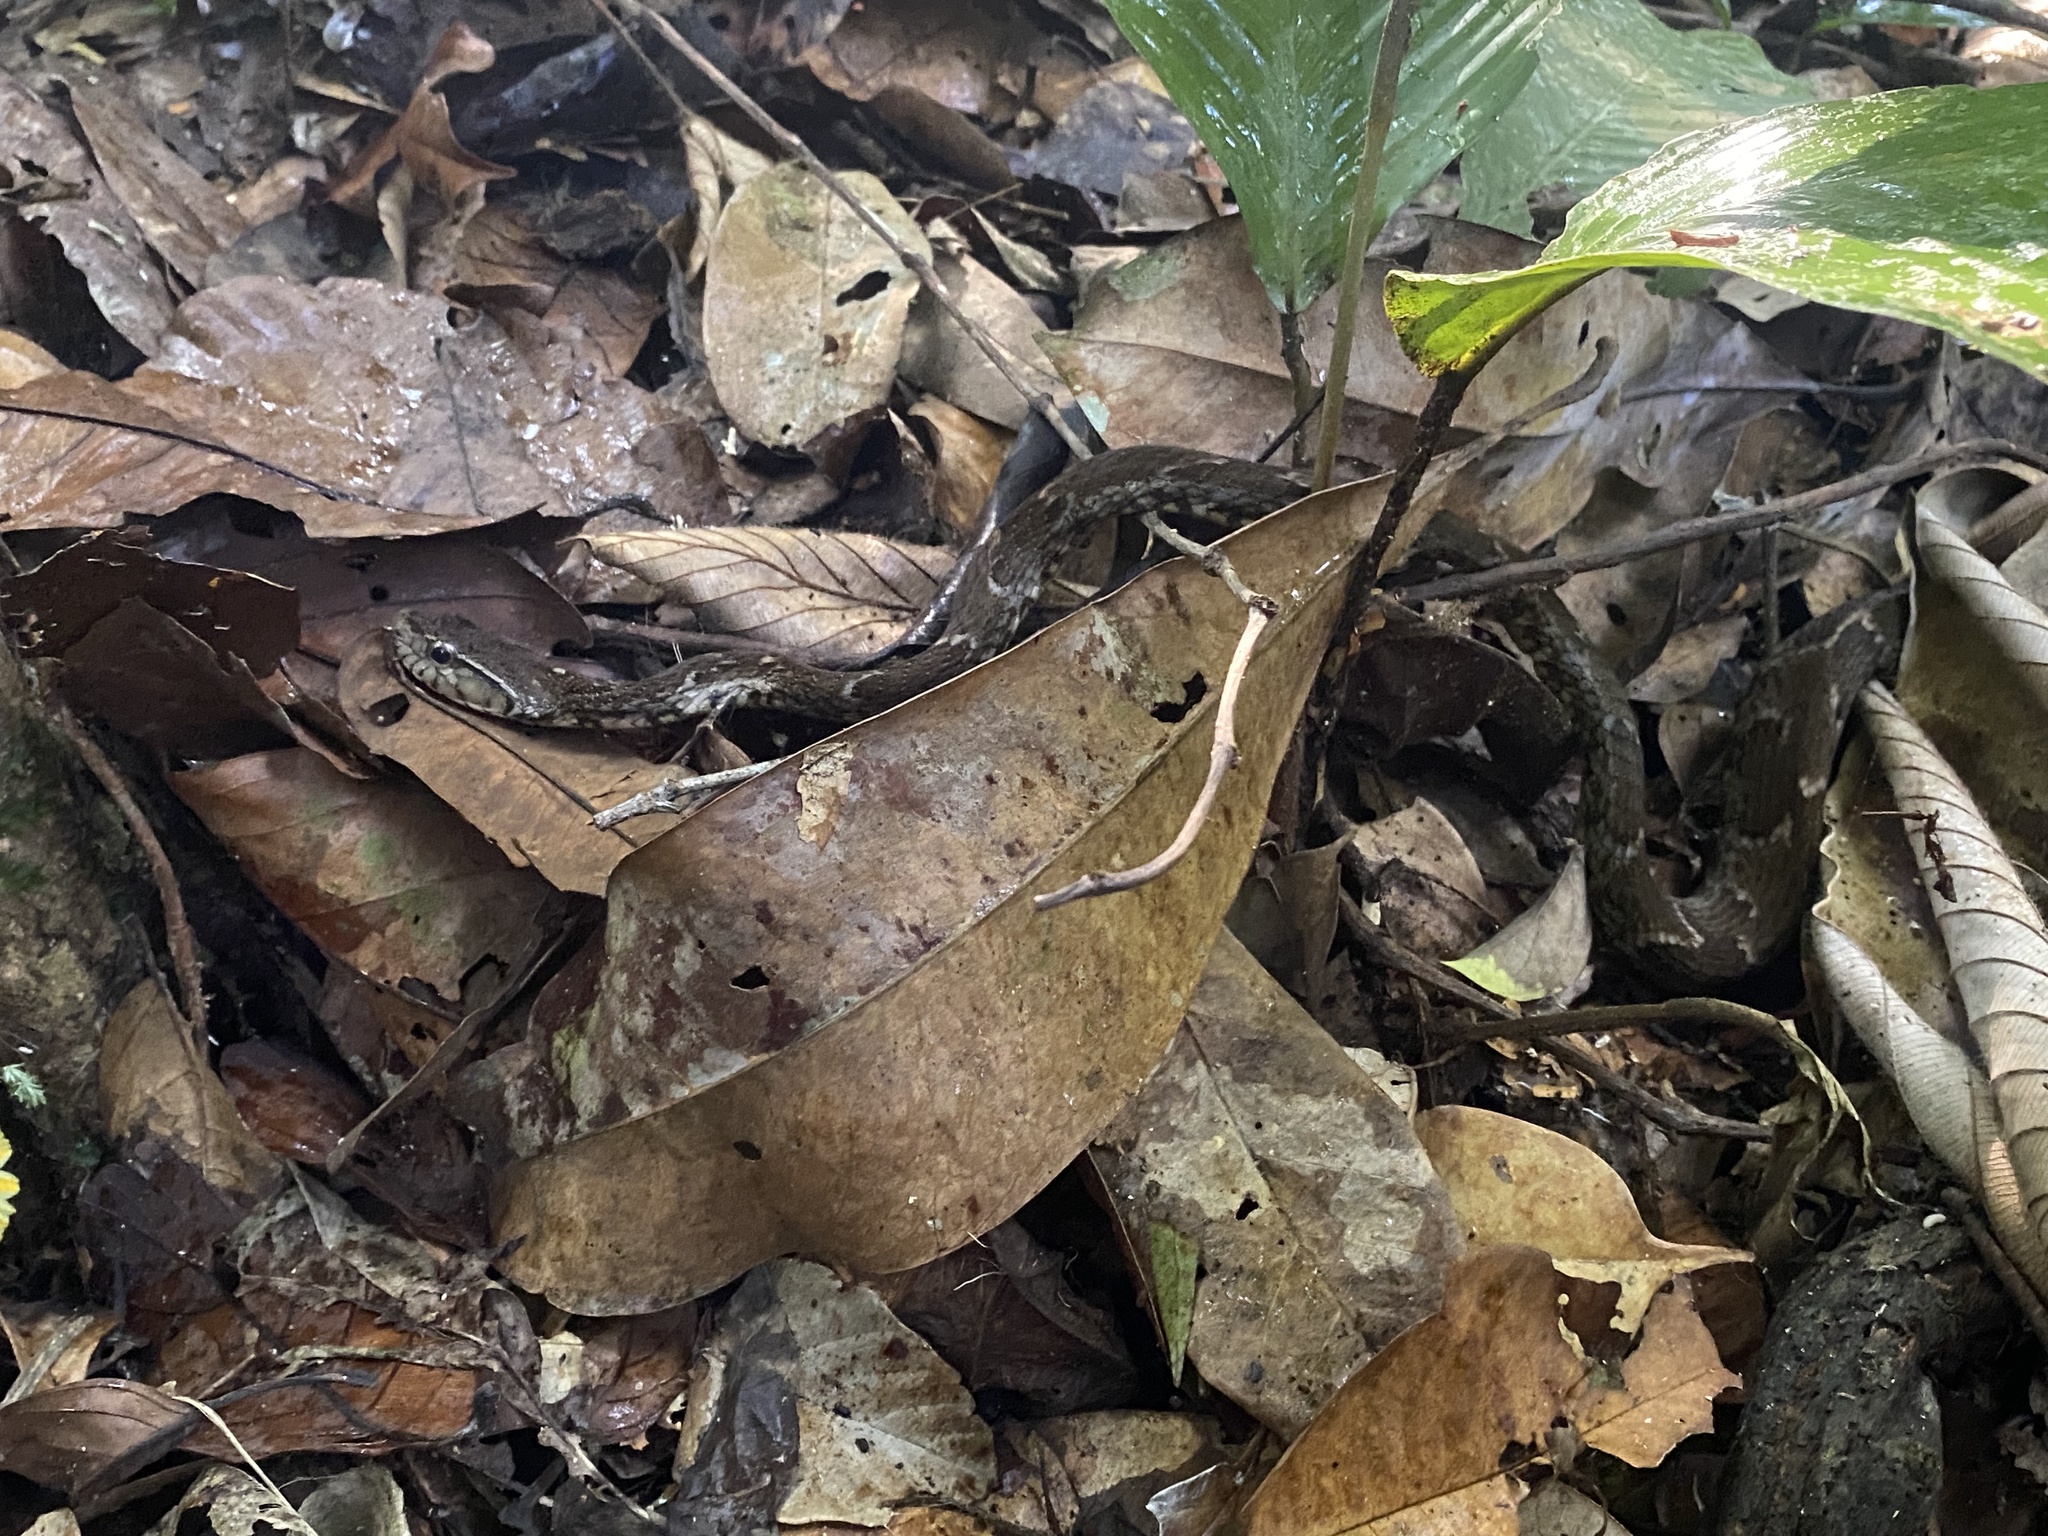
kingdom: Animalia
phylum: Chordata
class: Squamata
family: Colubridae
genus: Xenodon
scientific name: Xenodon rabdocephalus
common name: False fer-de-lance
